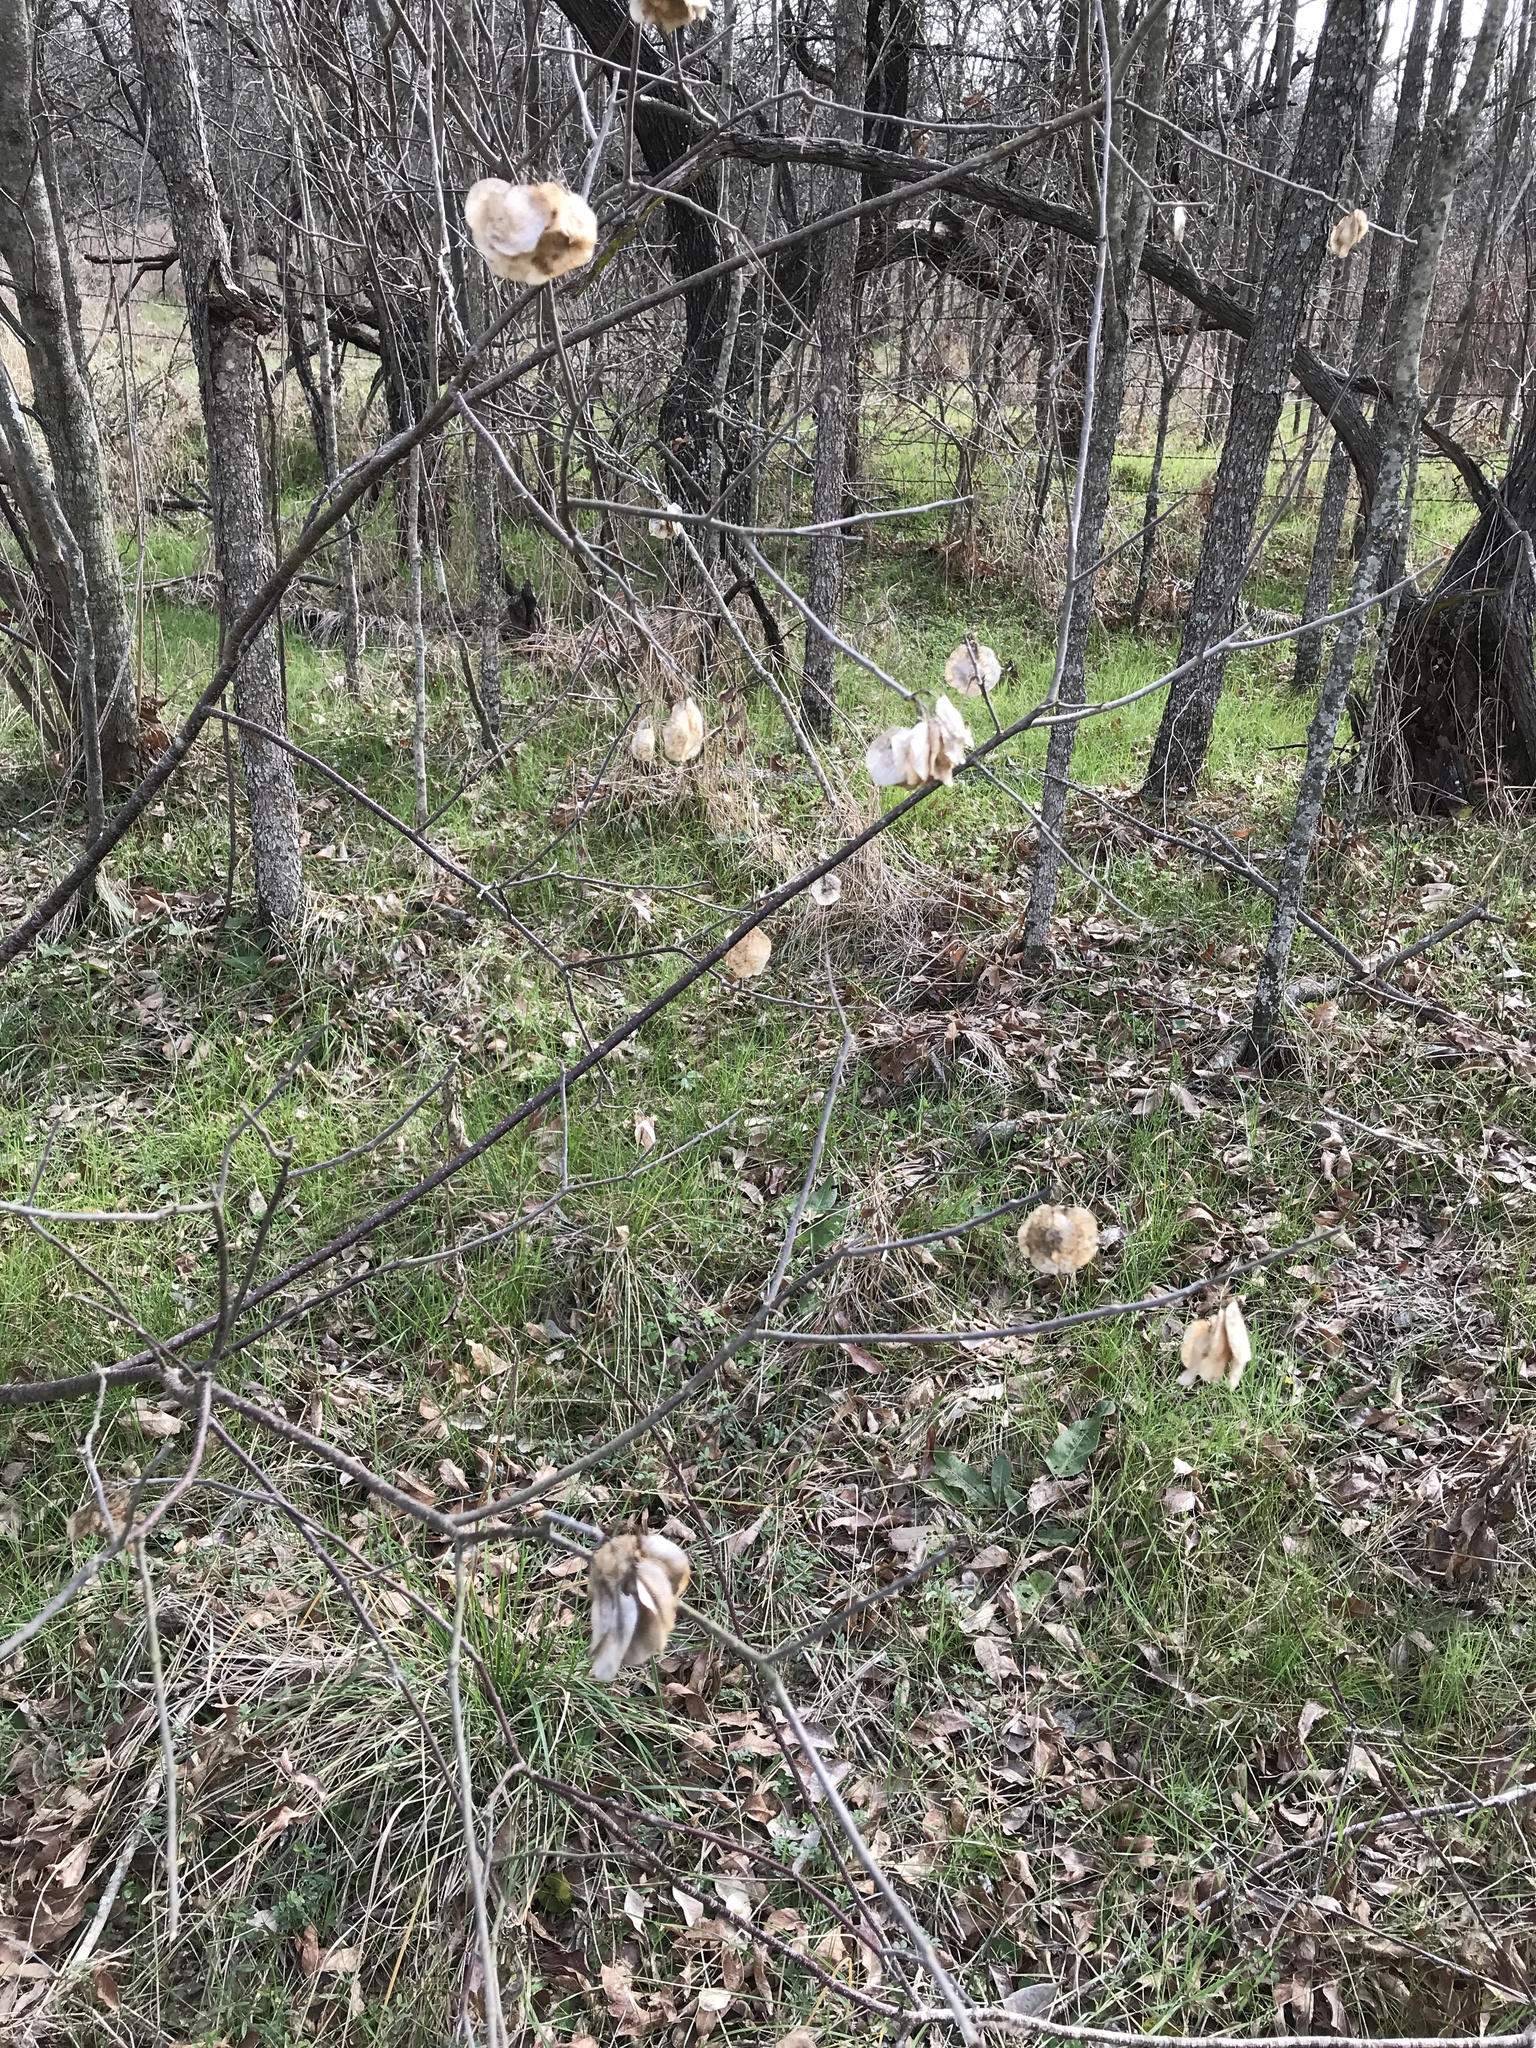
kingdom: Plantae
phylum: Tracheophyta
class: Magnoliopsida
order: Sapindales
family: Rutaceae
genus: Ptelea
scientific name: Ptelea trifoliata
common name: Common hop-tree
